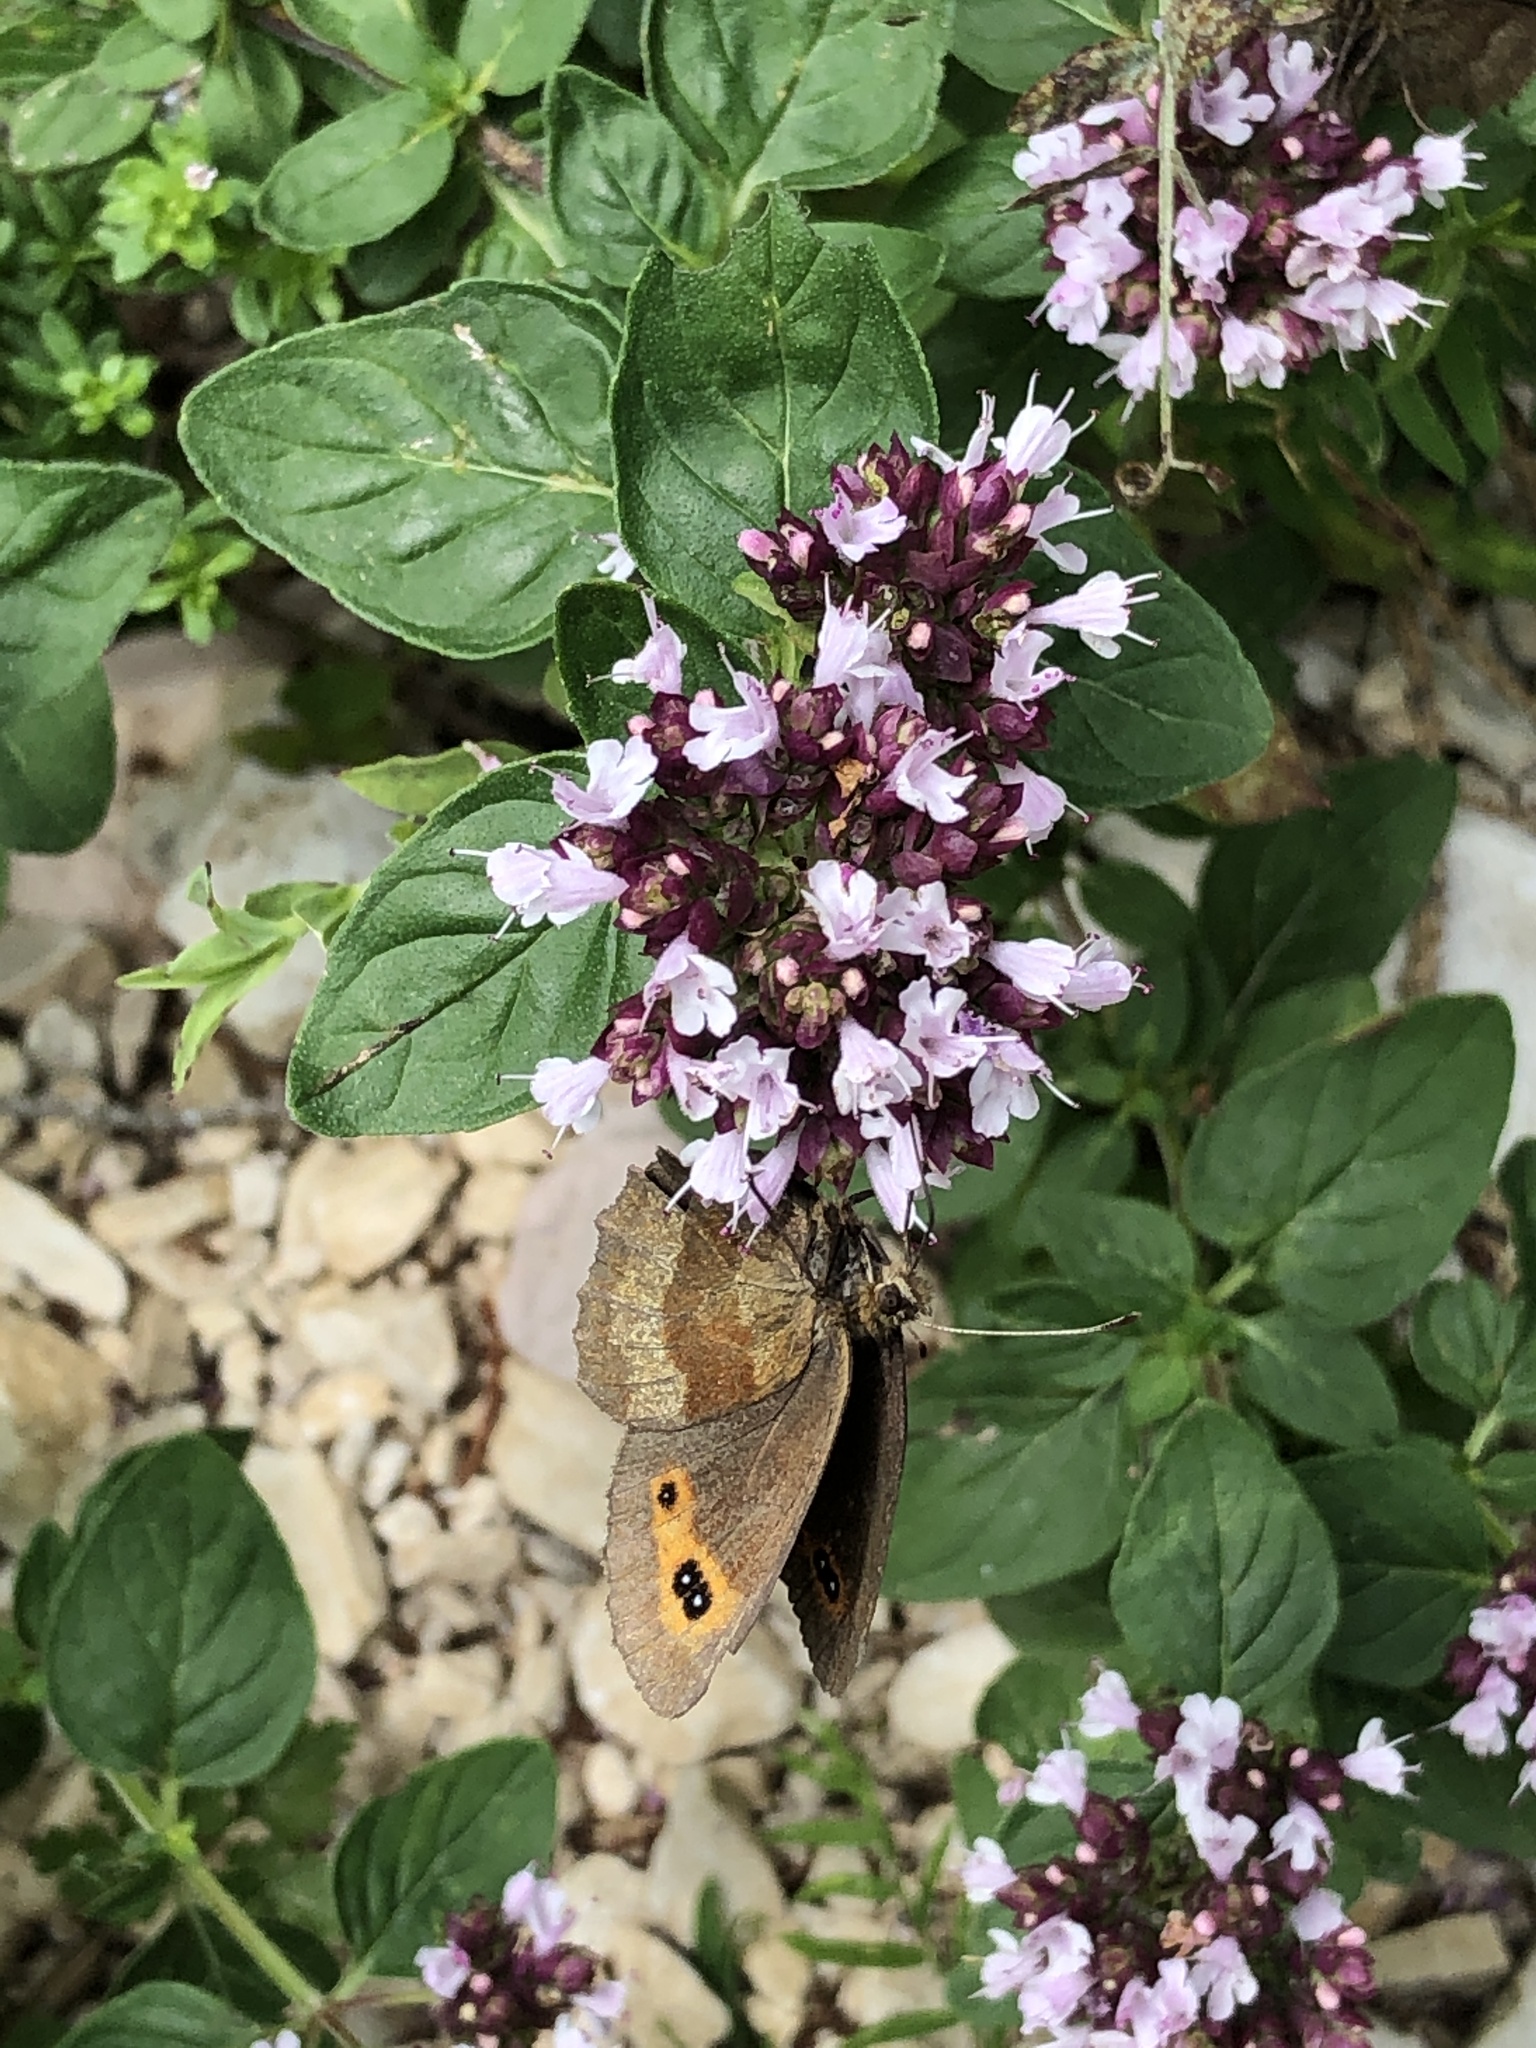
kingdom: Animalia
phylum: Arthropoda
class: Insecta
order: Lepidoptera
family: Nymphalidae
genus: Erebia
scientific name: Erebia aethiops
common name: Scotch argus
